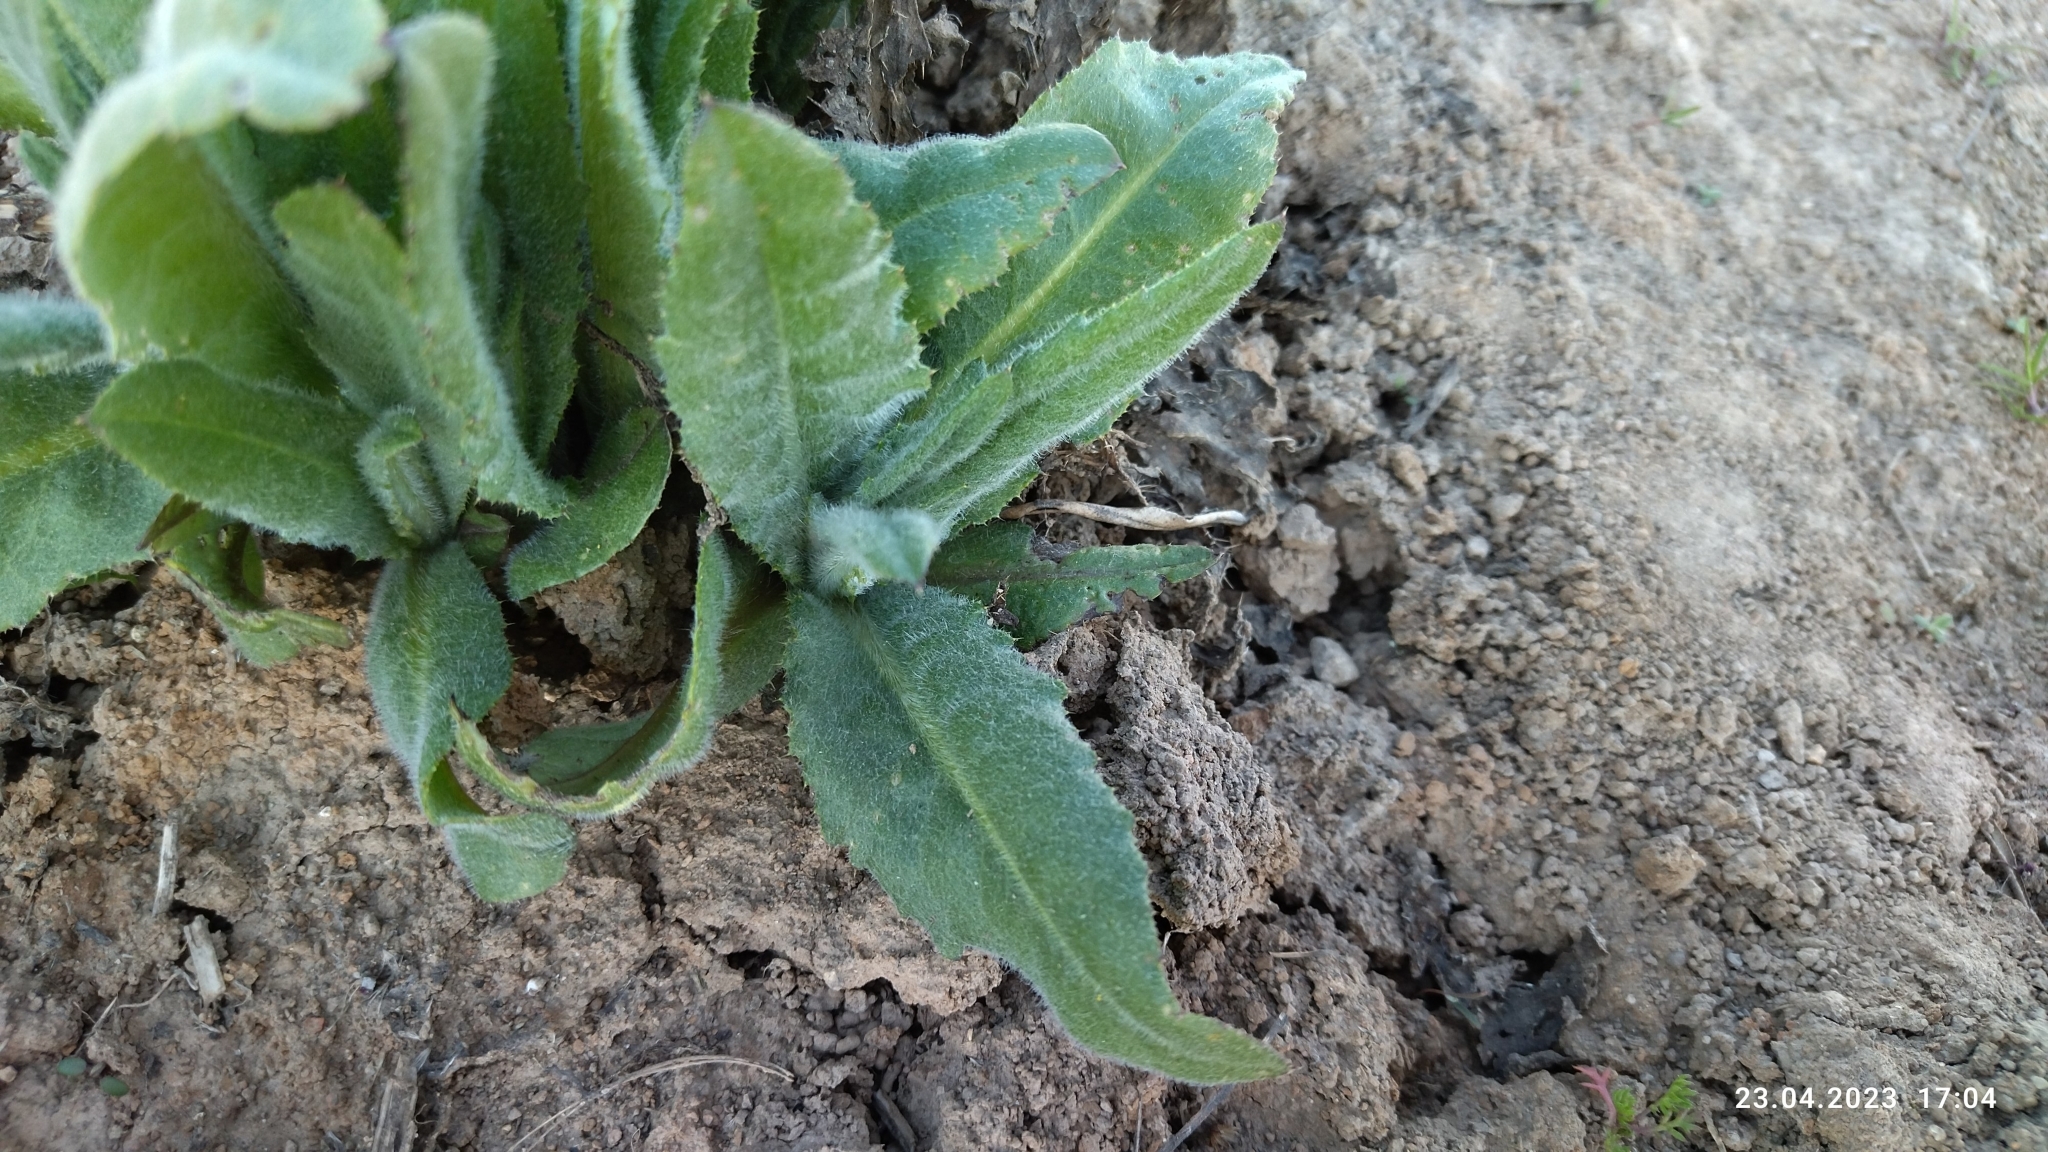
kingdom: Plantae
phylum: Tracheophyta
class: Magnoliopsida
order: Asterales
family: Asteraceae
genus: Cirsium
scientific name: Cirsium arvense
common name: Creeping thistle
